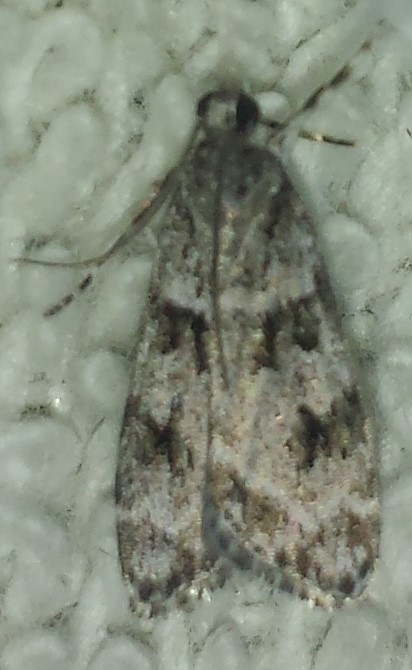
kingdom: Animalia
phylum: Arthropoda
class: Insecta
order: Lepidoptera
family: Crambidae
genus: Scoparia
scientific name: Scoparia biplagialis
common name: Double-striped scoparia moth
